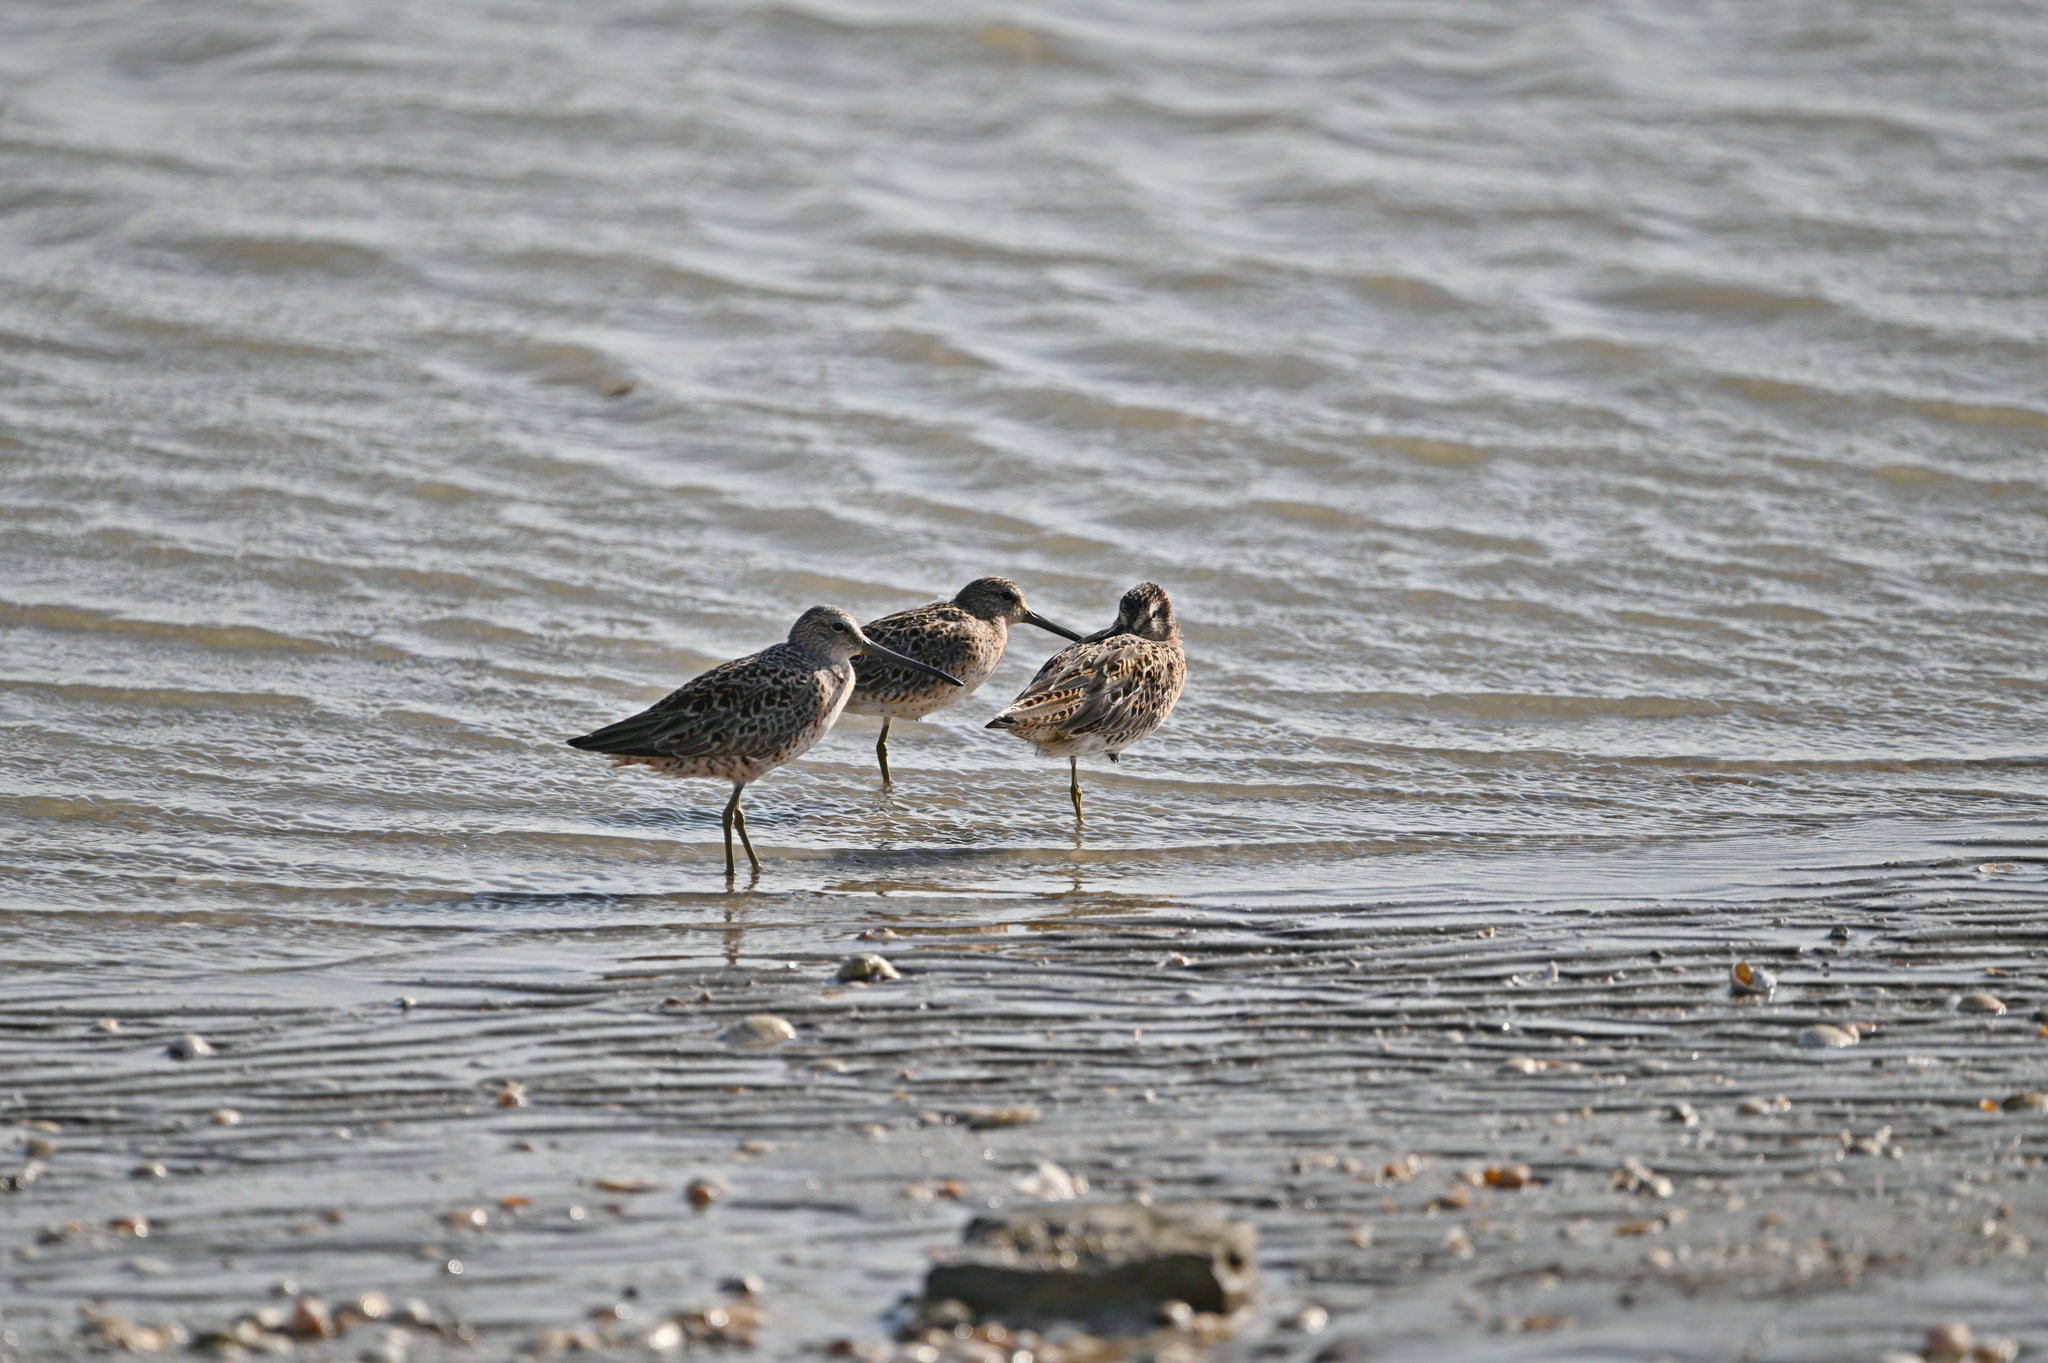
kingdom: Animalia
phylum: Chordata
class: Aves
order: Charadriiformes
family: Scolopacidae
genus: Limnodromus
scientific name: Limnodromus griseus
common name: Short-billed dowitcher
